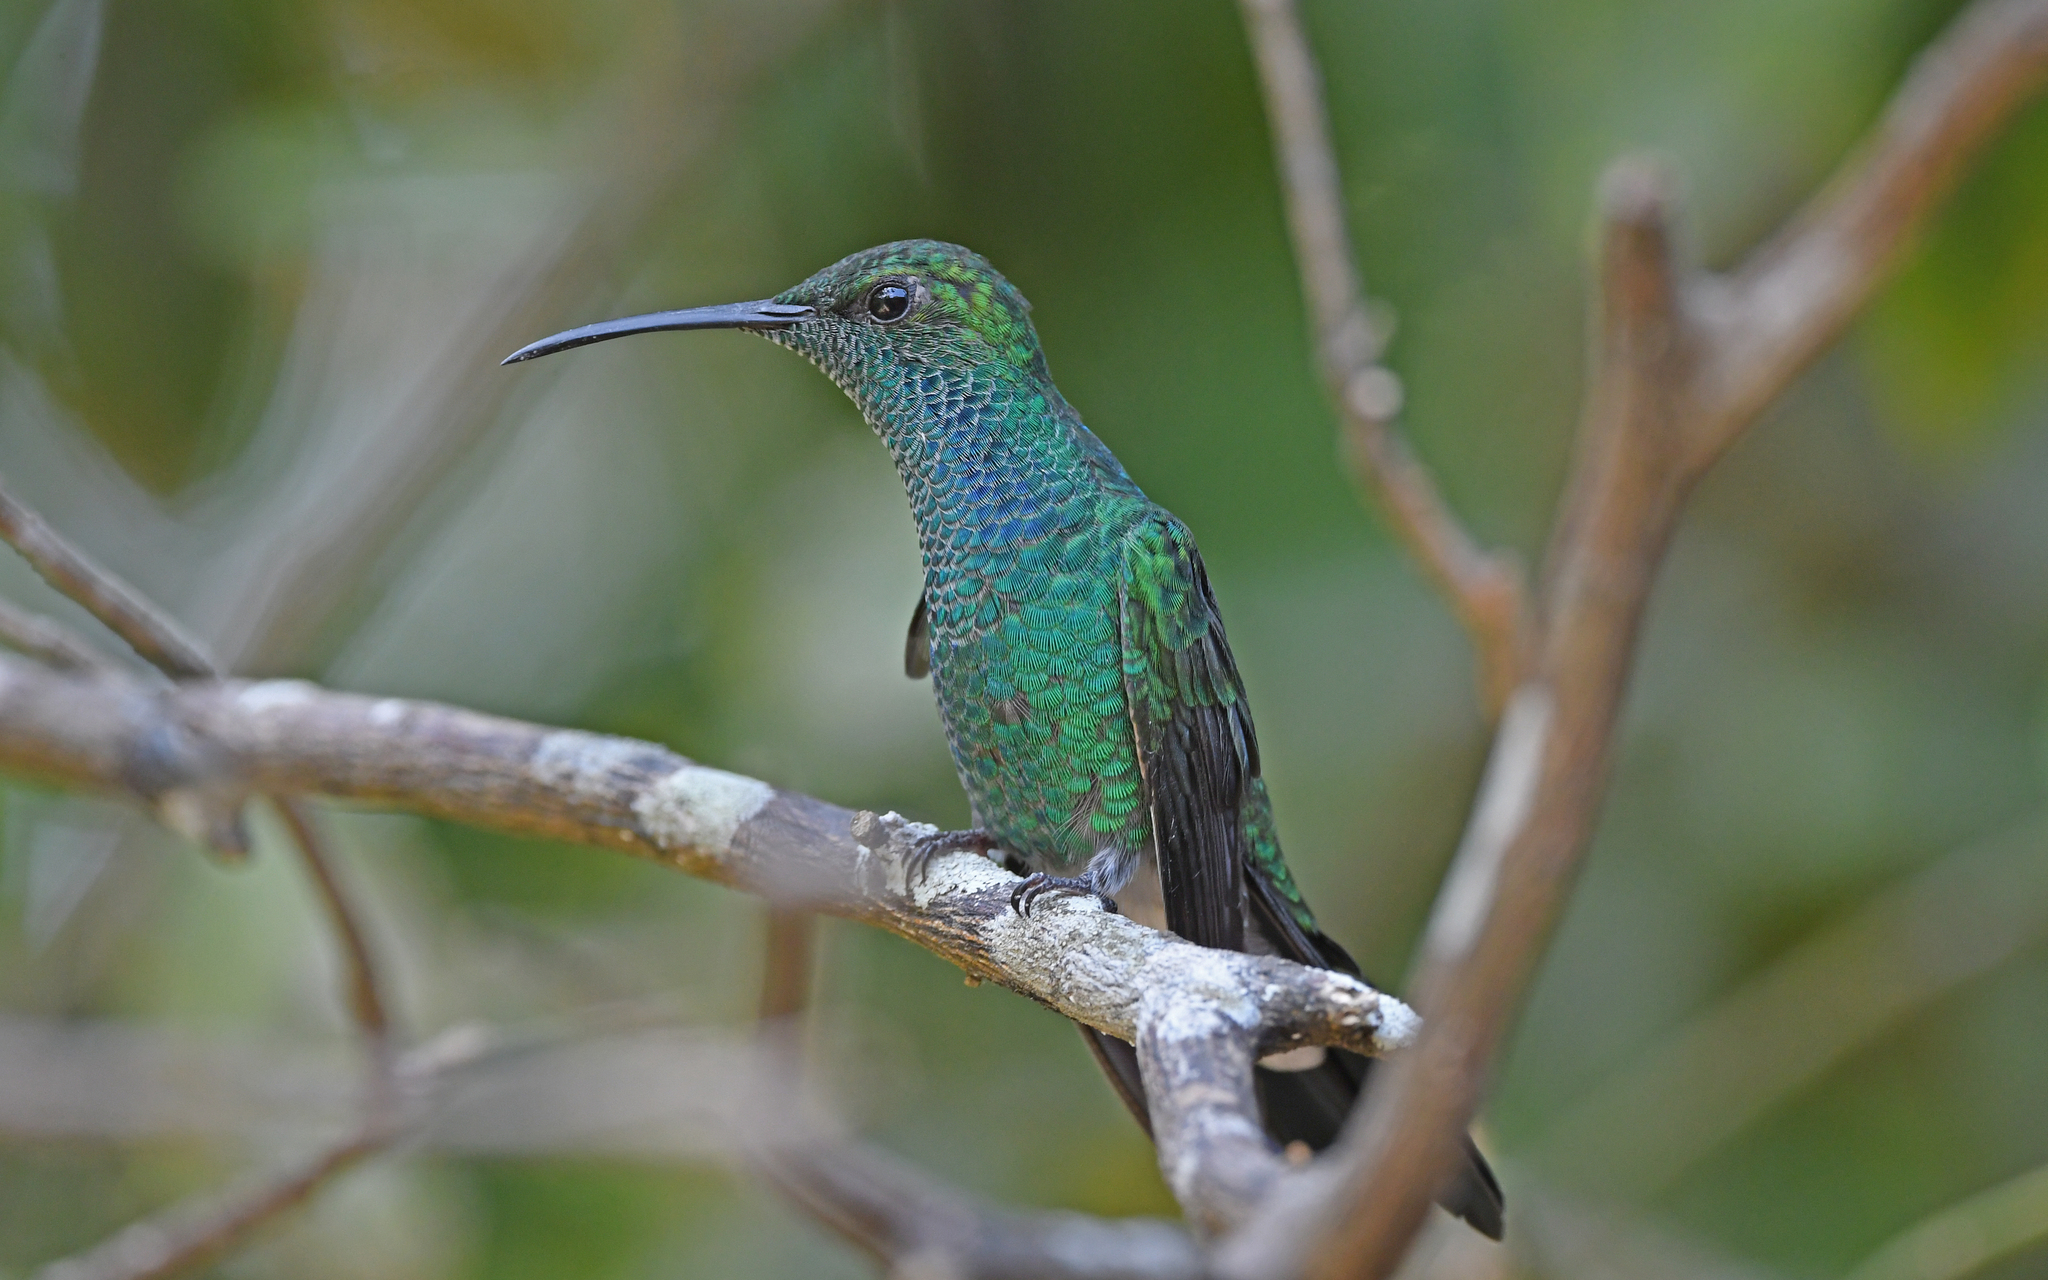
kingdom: Animalia
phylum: Chordata
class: Aves
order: Apodiformes
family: Trochilidae
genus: Chalybura
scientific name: Chalybura buffonii
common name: White-vented plumeleteer
